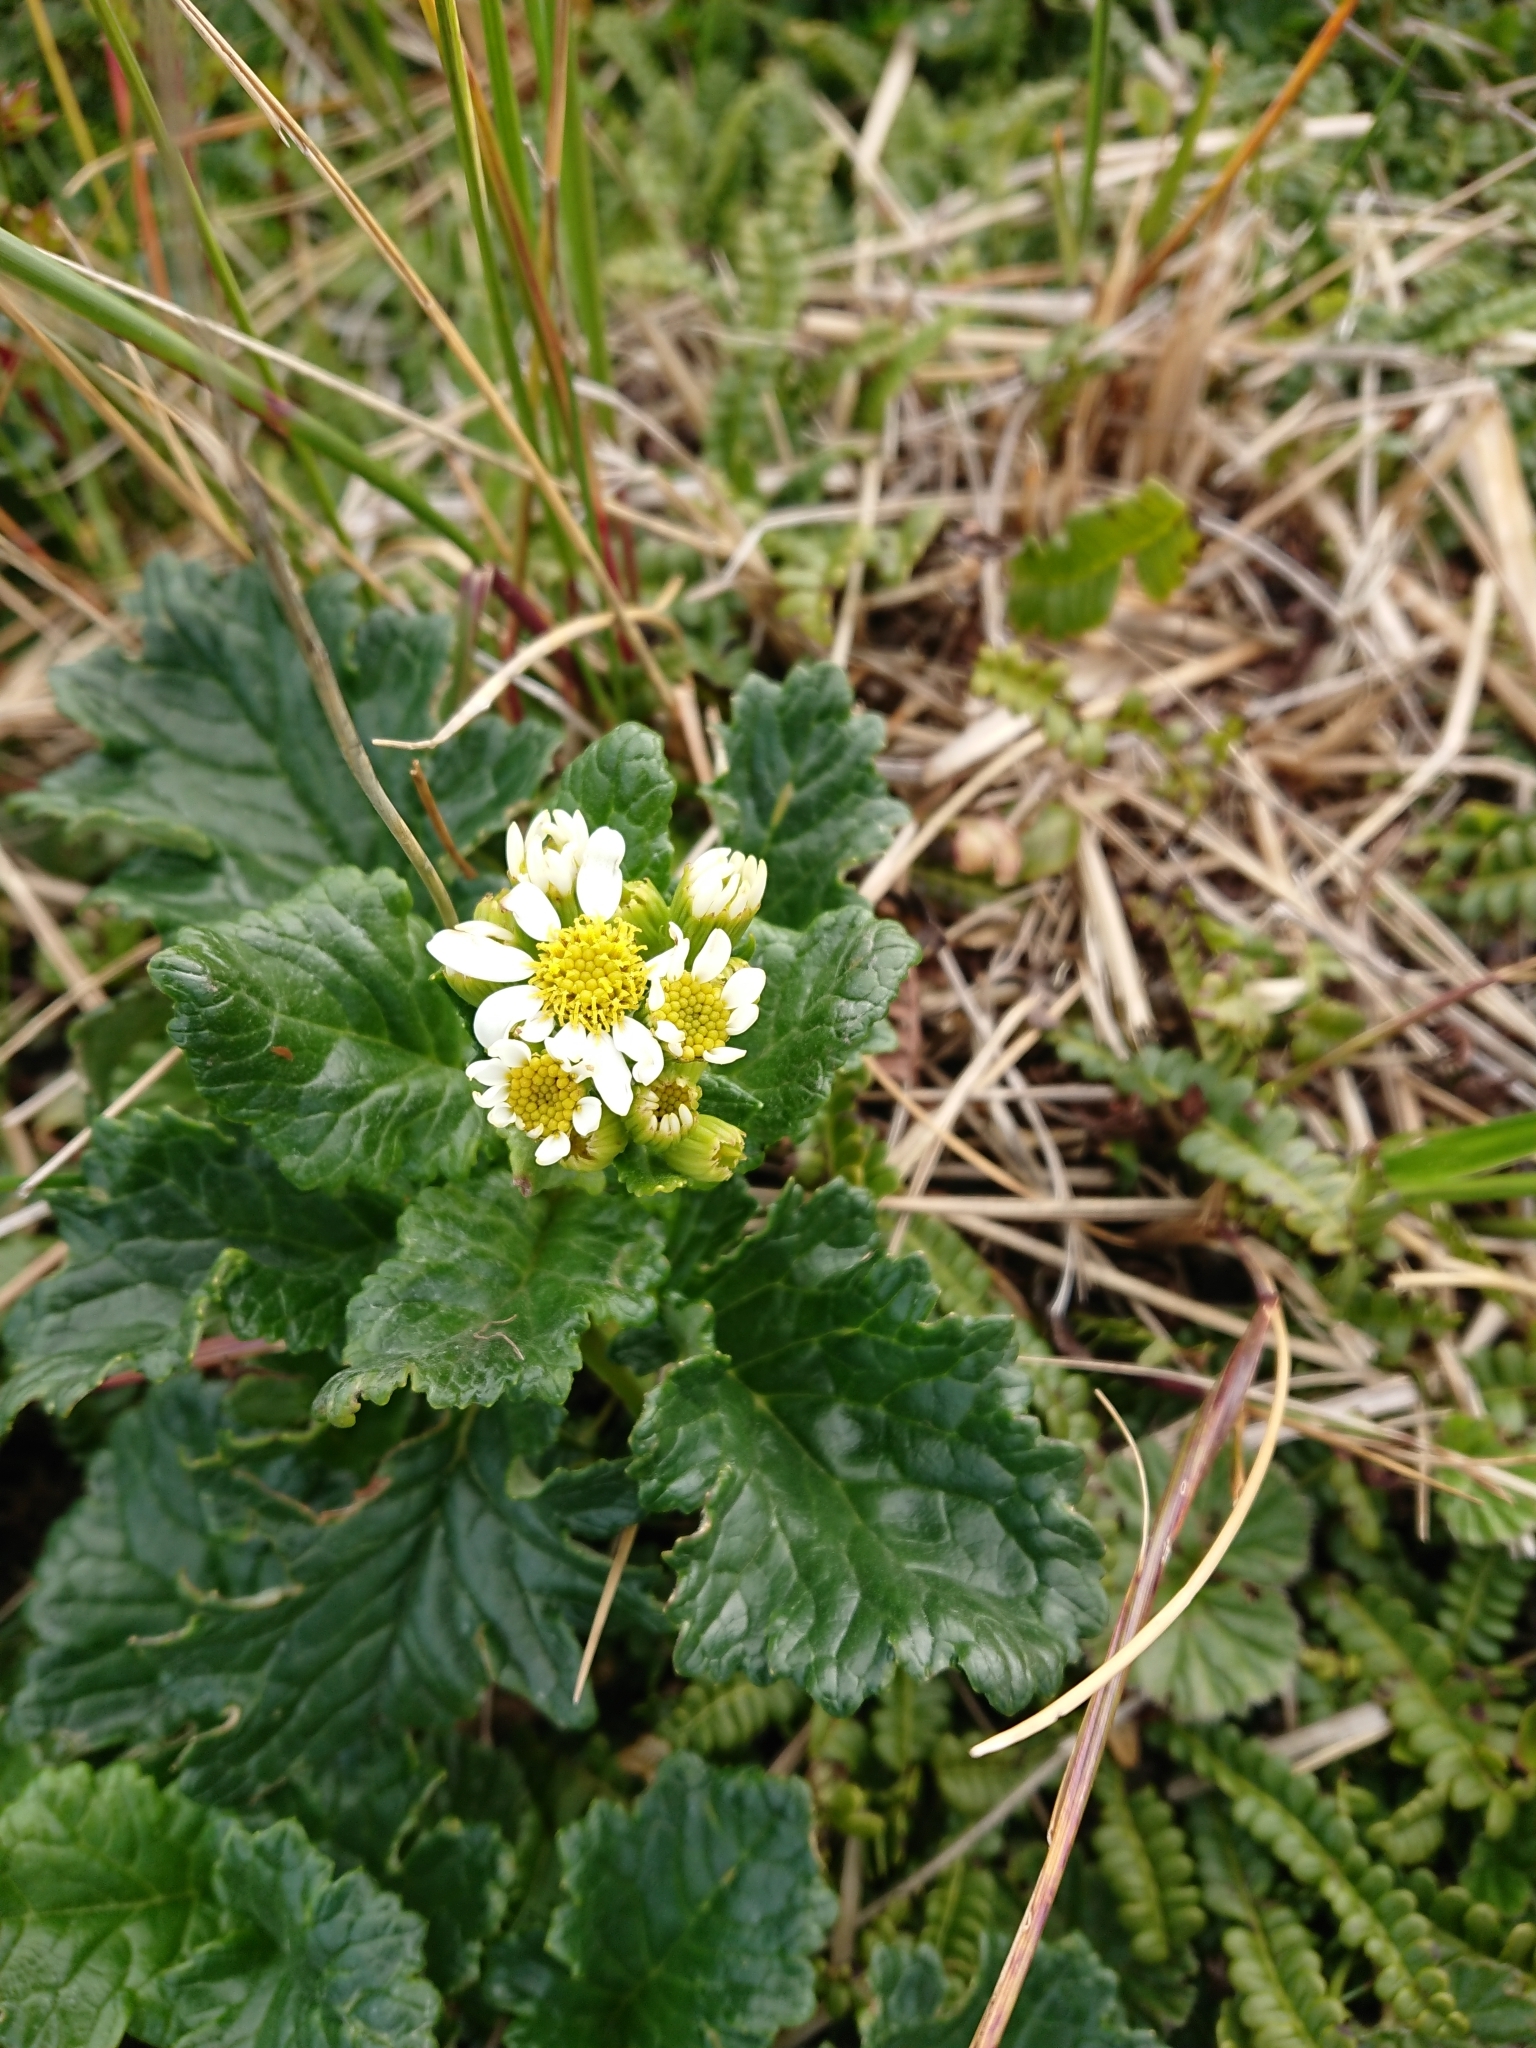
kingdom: Plantae
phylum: Tracheophyta
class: Magnoliopsida
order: Asterales
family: Asteraceae
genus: Iocenes
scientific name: Iocenes virens
